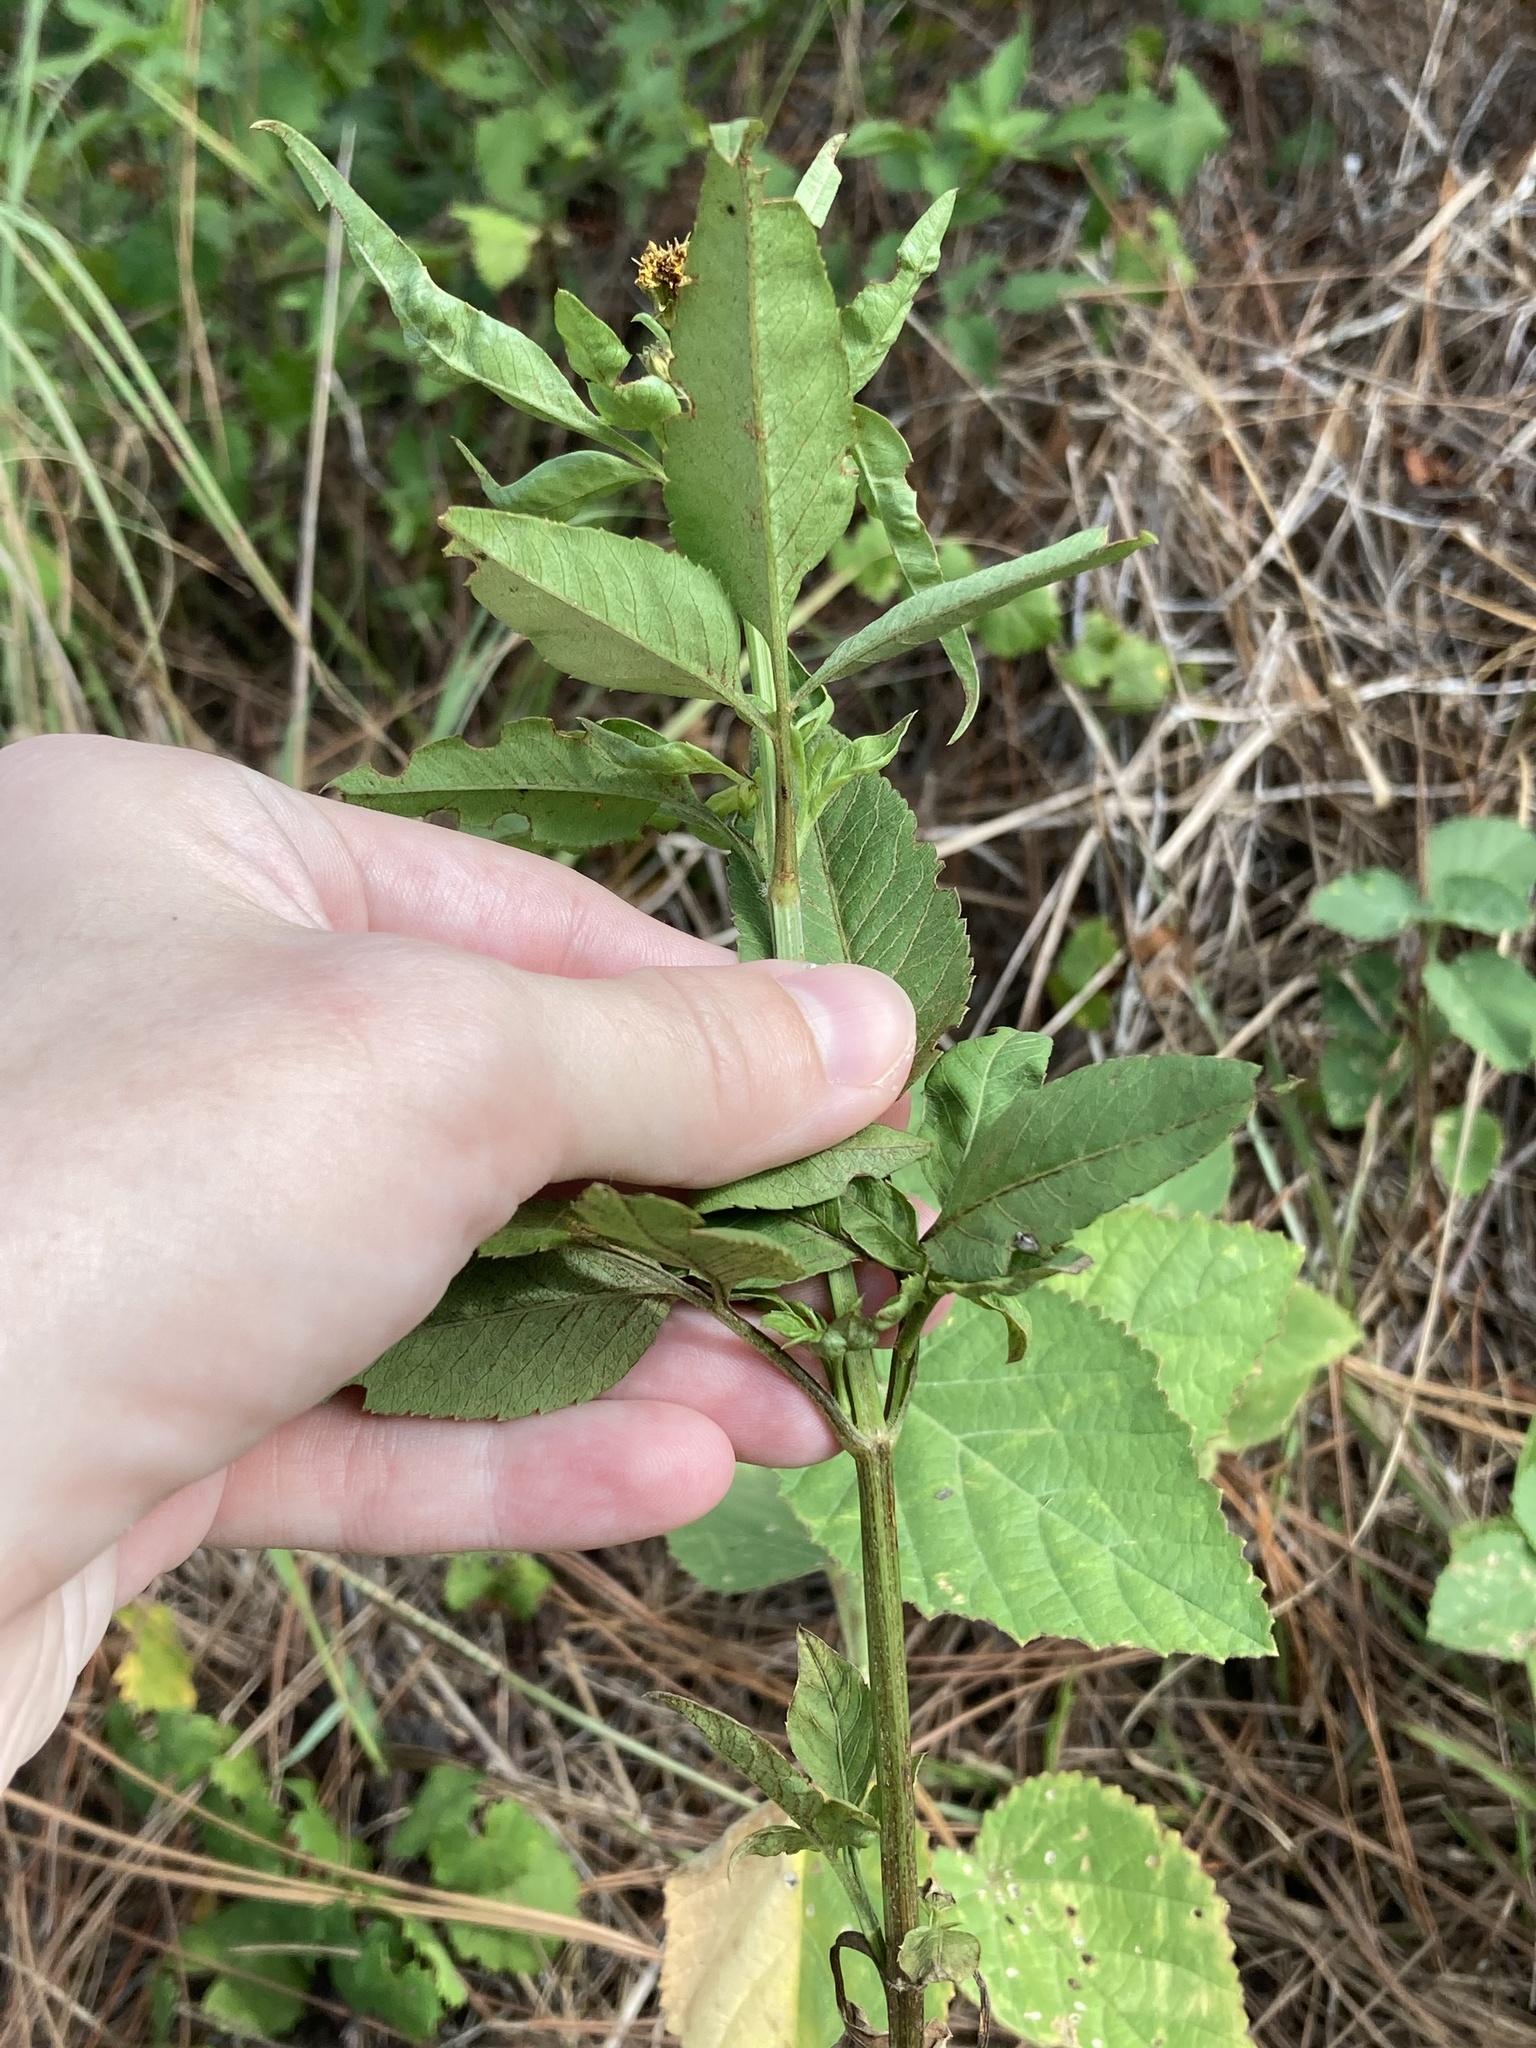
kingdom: Plantae
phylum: Tracheophyta
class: Magnoliopsida
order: Asterales
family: Asteraceae
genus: Bidens
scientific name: Bidens alba
